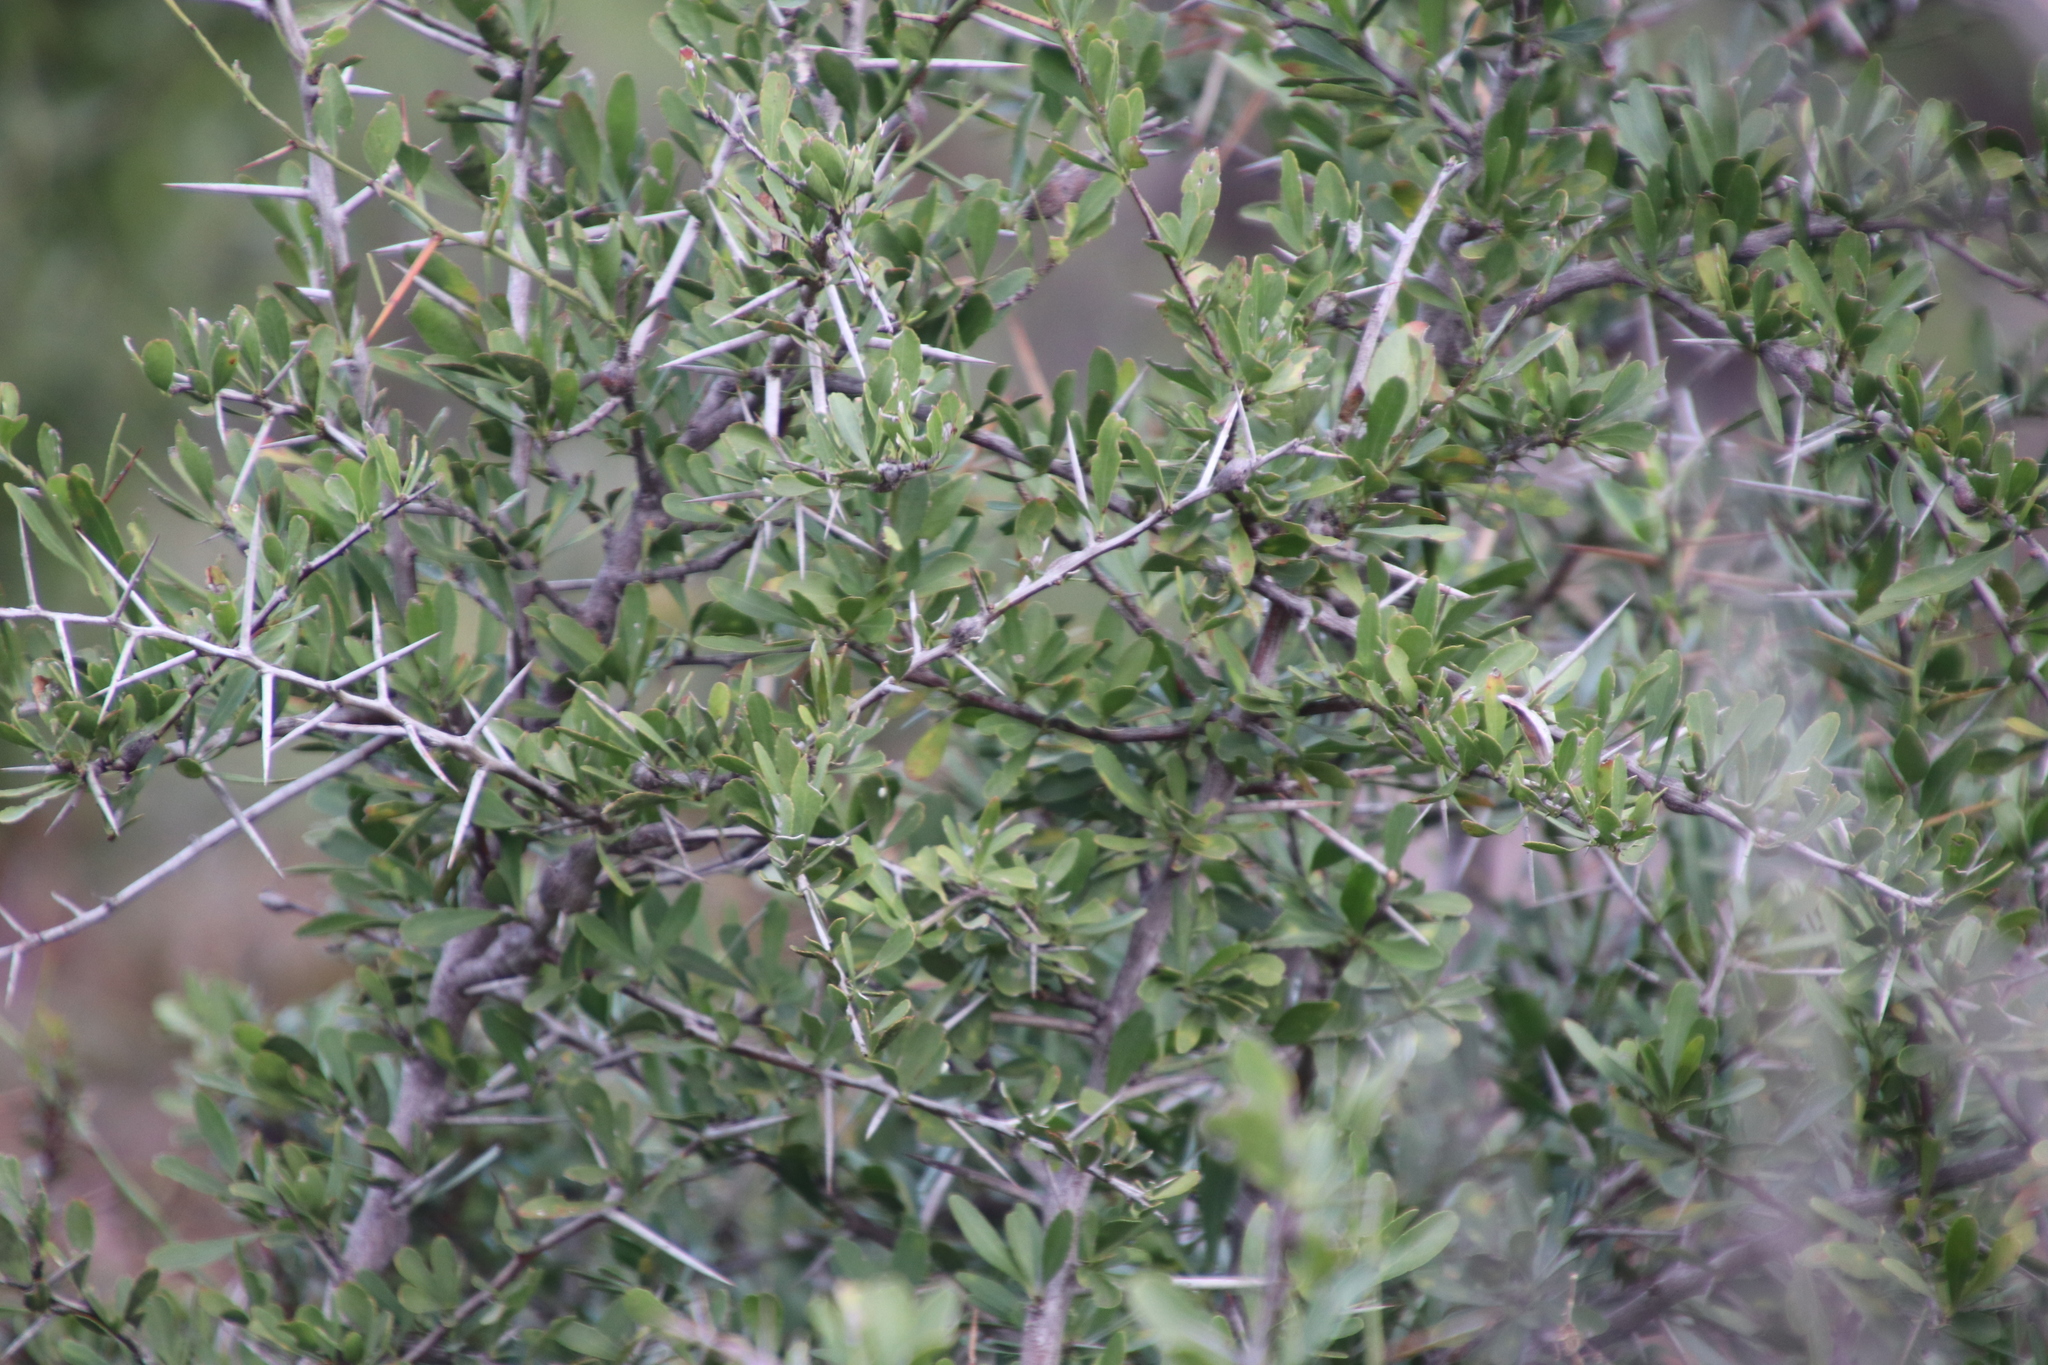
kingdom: Plantae
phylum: Tracheophyta
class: Magnoliopsida
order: Celastrales
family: Celastraceae
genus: Gymnosporia
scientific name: Gymnosporia buxifolia
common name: Common spike-thorn
